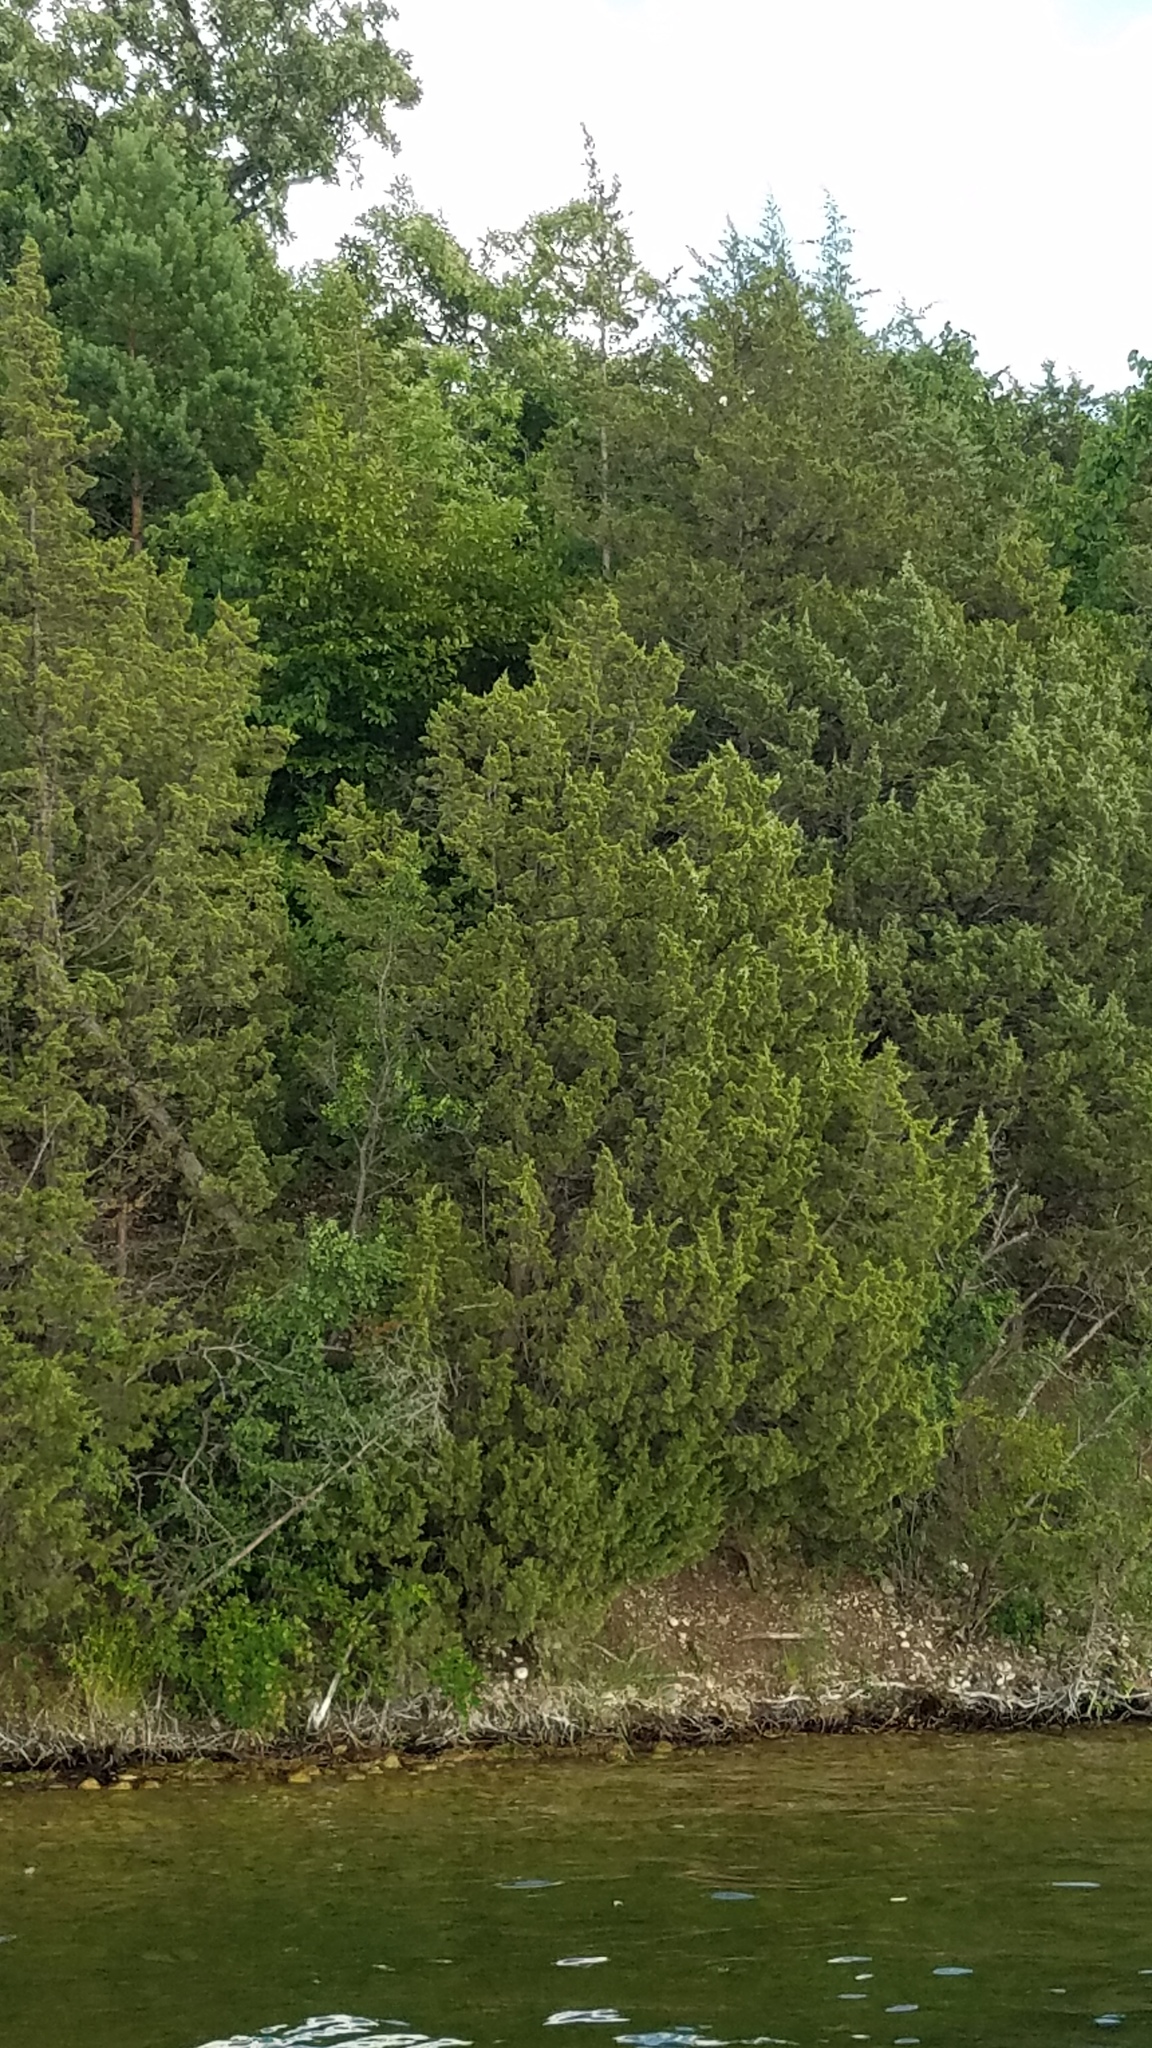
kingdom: Plantae
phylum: Tracheophyta
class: Pinopsida
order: Pinales
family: Cupressaceae
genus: Juniperus
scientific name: Juniperus virginiana
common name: Red juniper
